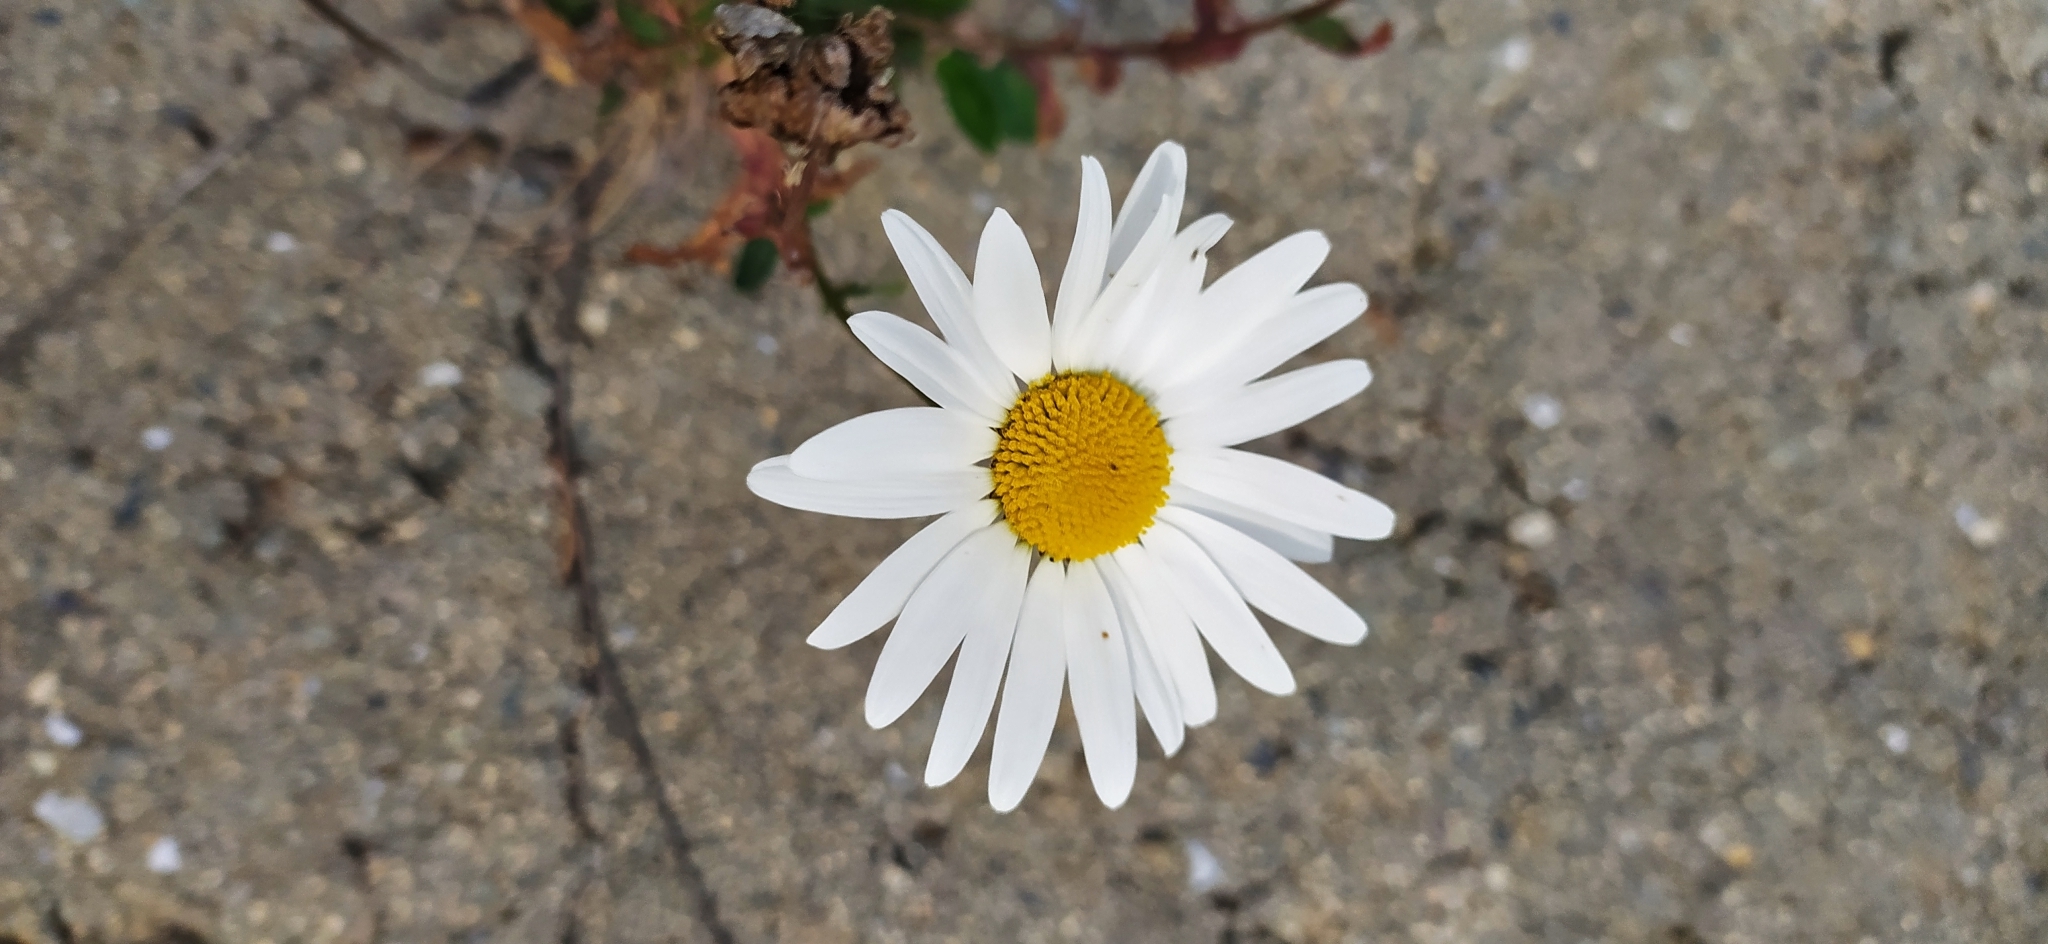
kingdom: Plantae
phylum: Tracheophyta
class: Magnoliopsida
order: Asterales
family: Asteraceae
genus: Leucanthemum
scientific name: Leucanthemum ircutianum
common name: Daisy
